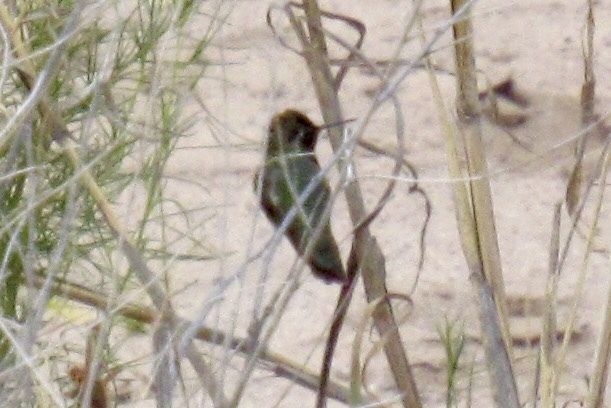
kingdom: Animalia
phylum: Chordata
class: Aves
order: Apodiformes
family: Trochilidae
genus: Calypte
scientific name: Calypte anna
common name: Anna's hummingbird
